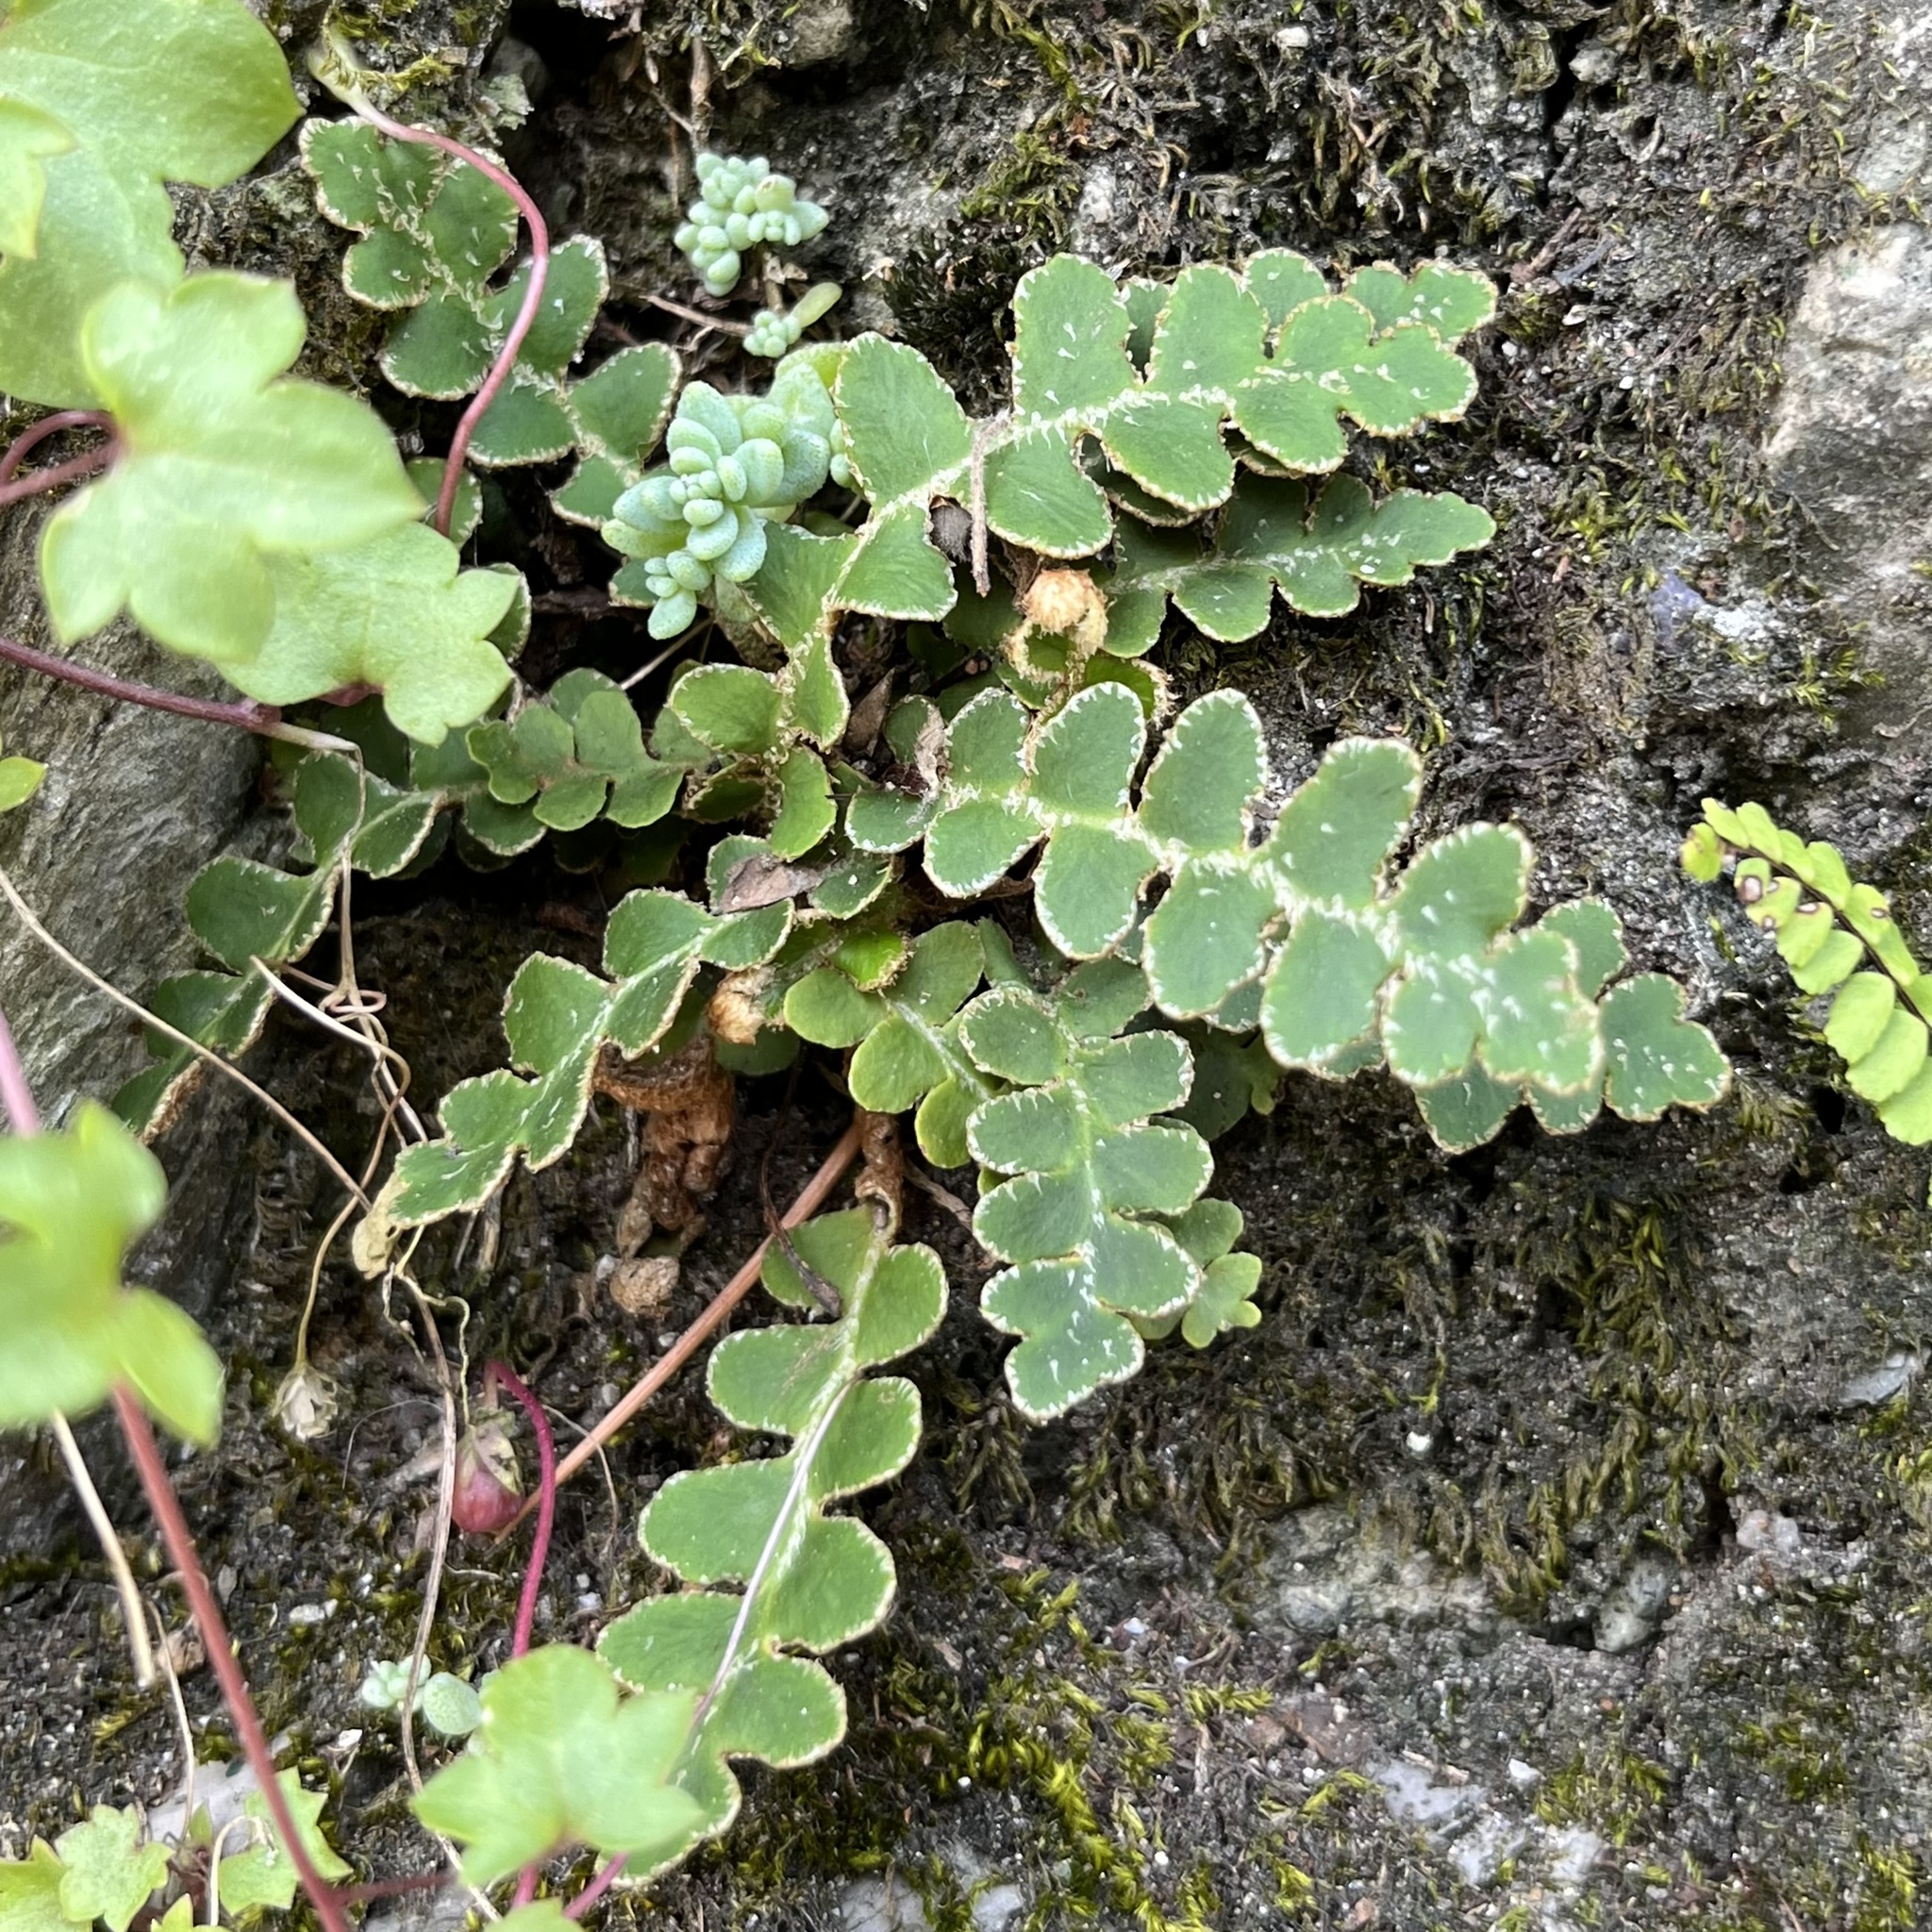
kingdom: Plantae
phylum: Tracheophyta
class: Polypodiopsida
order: Polypodiales
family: Aspleniaceae
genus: Asplenium
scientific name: Asplenium ceterach
